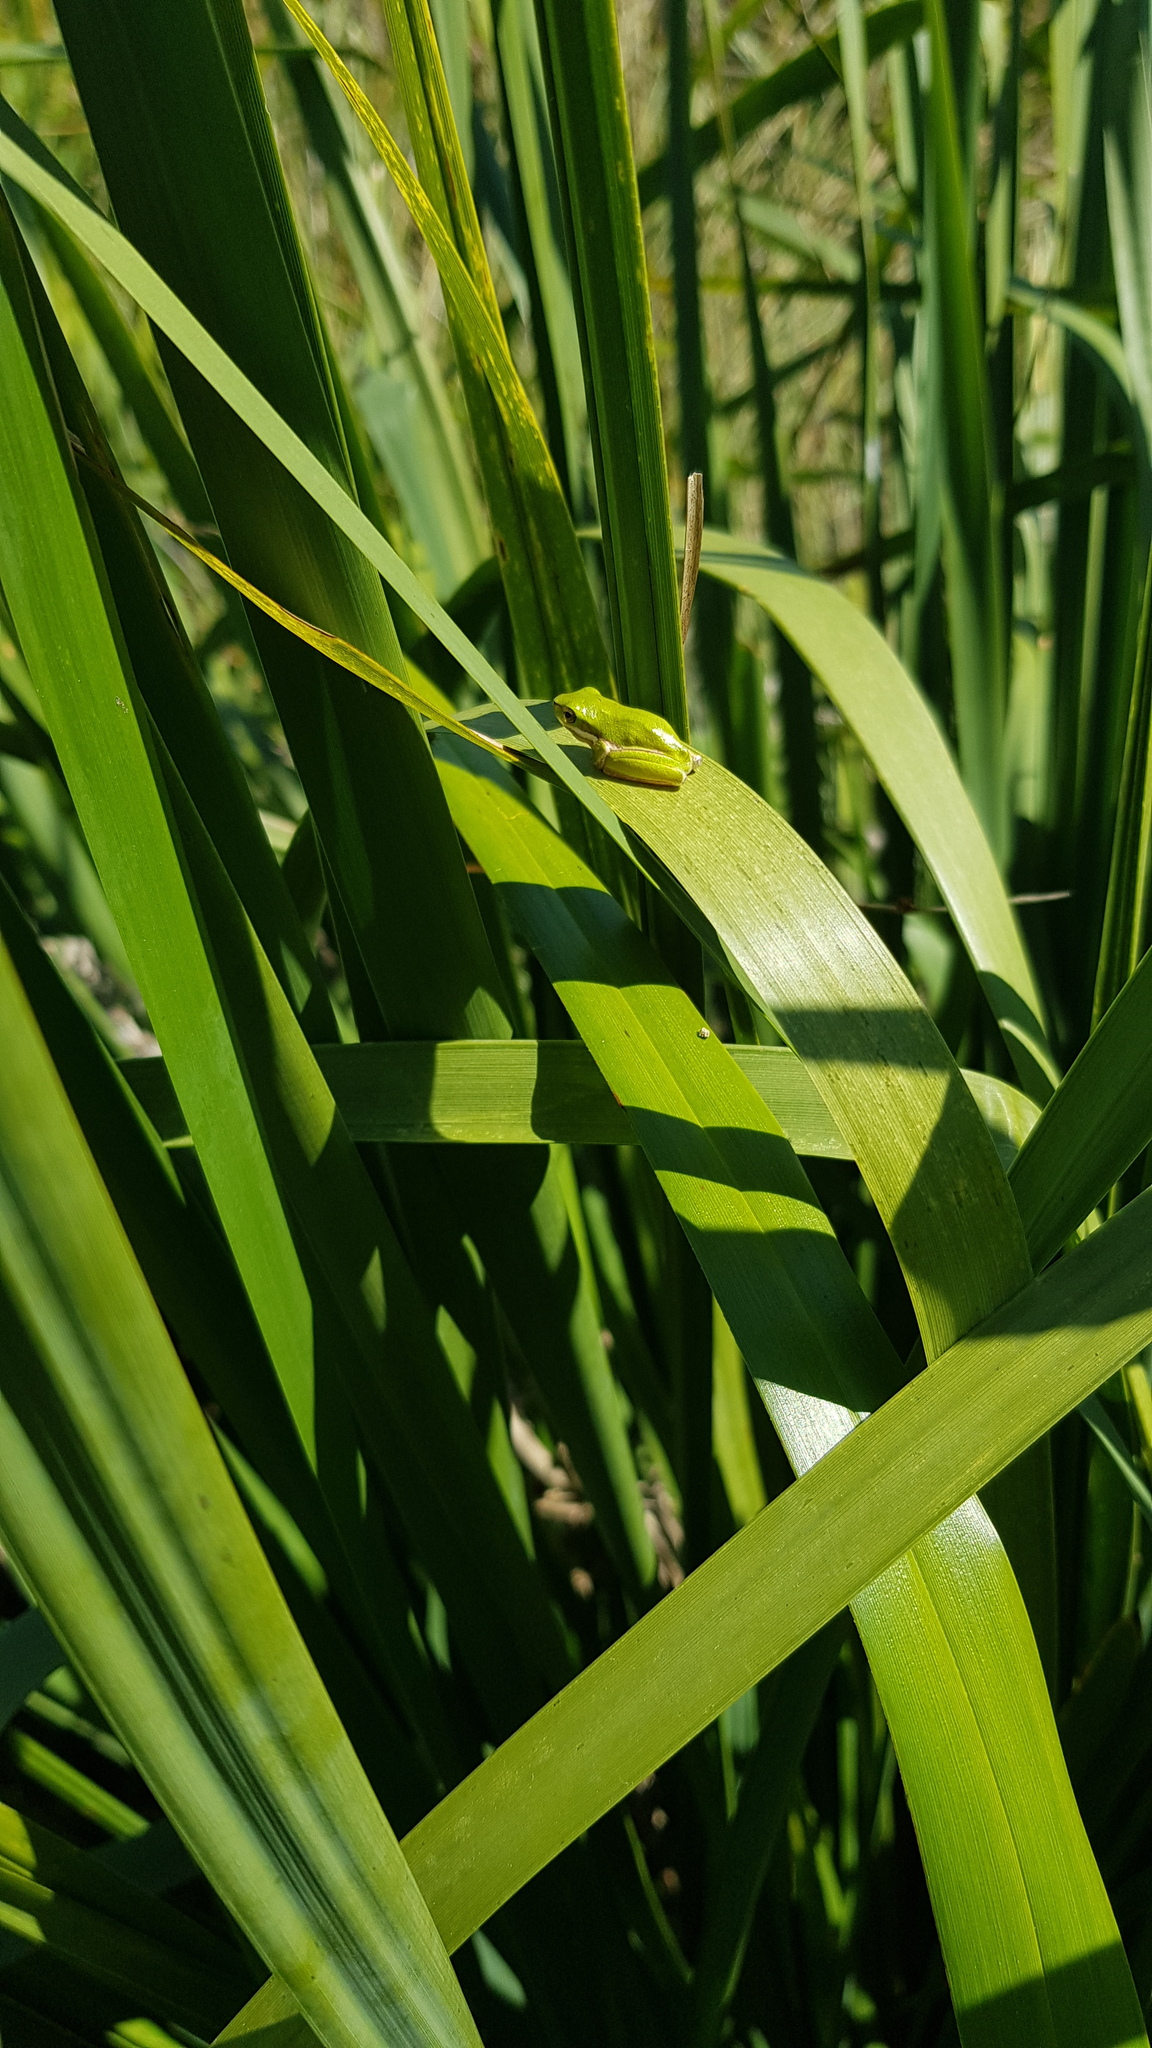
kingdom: Animalia
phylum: Chordata
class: Amphibia
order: Anura
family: Pelodryadidae
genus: Litoria
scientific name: Litoria fallax
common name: Eastern dwarf treefrog
